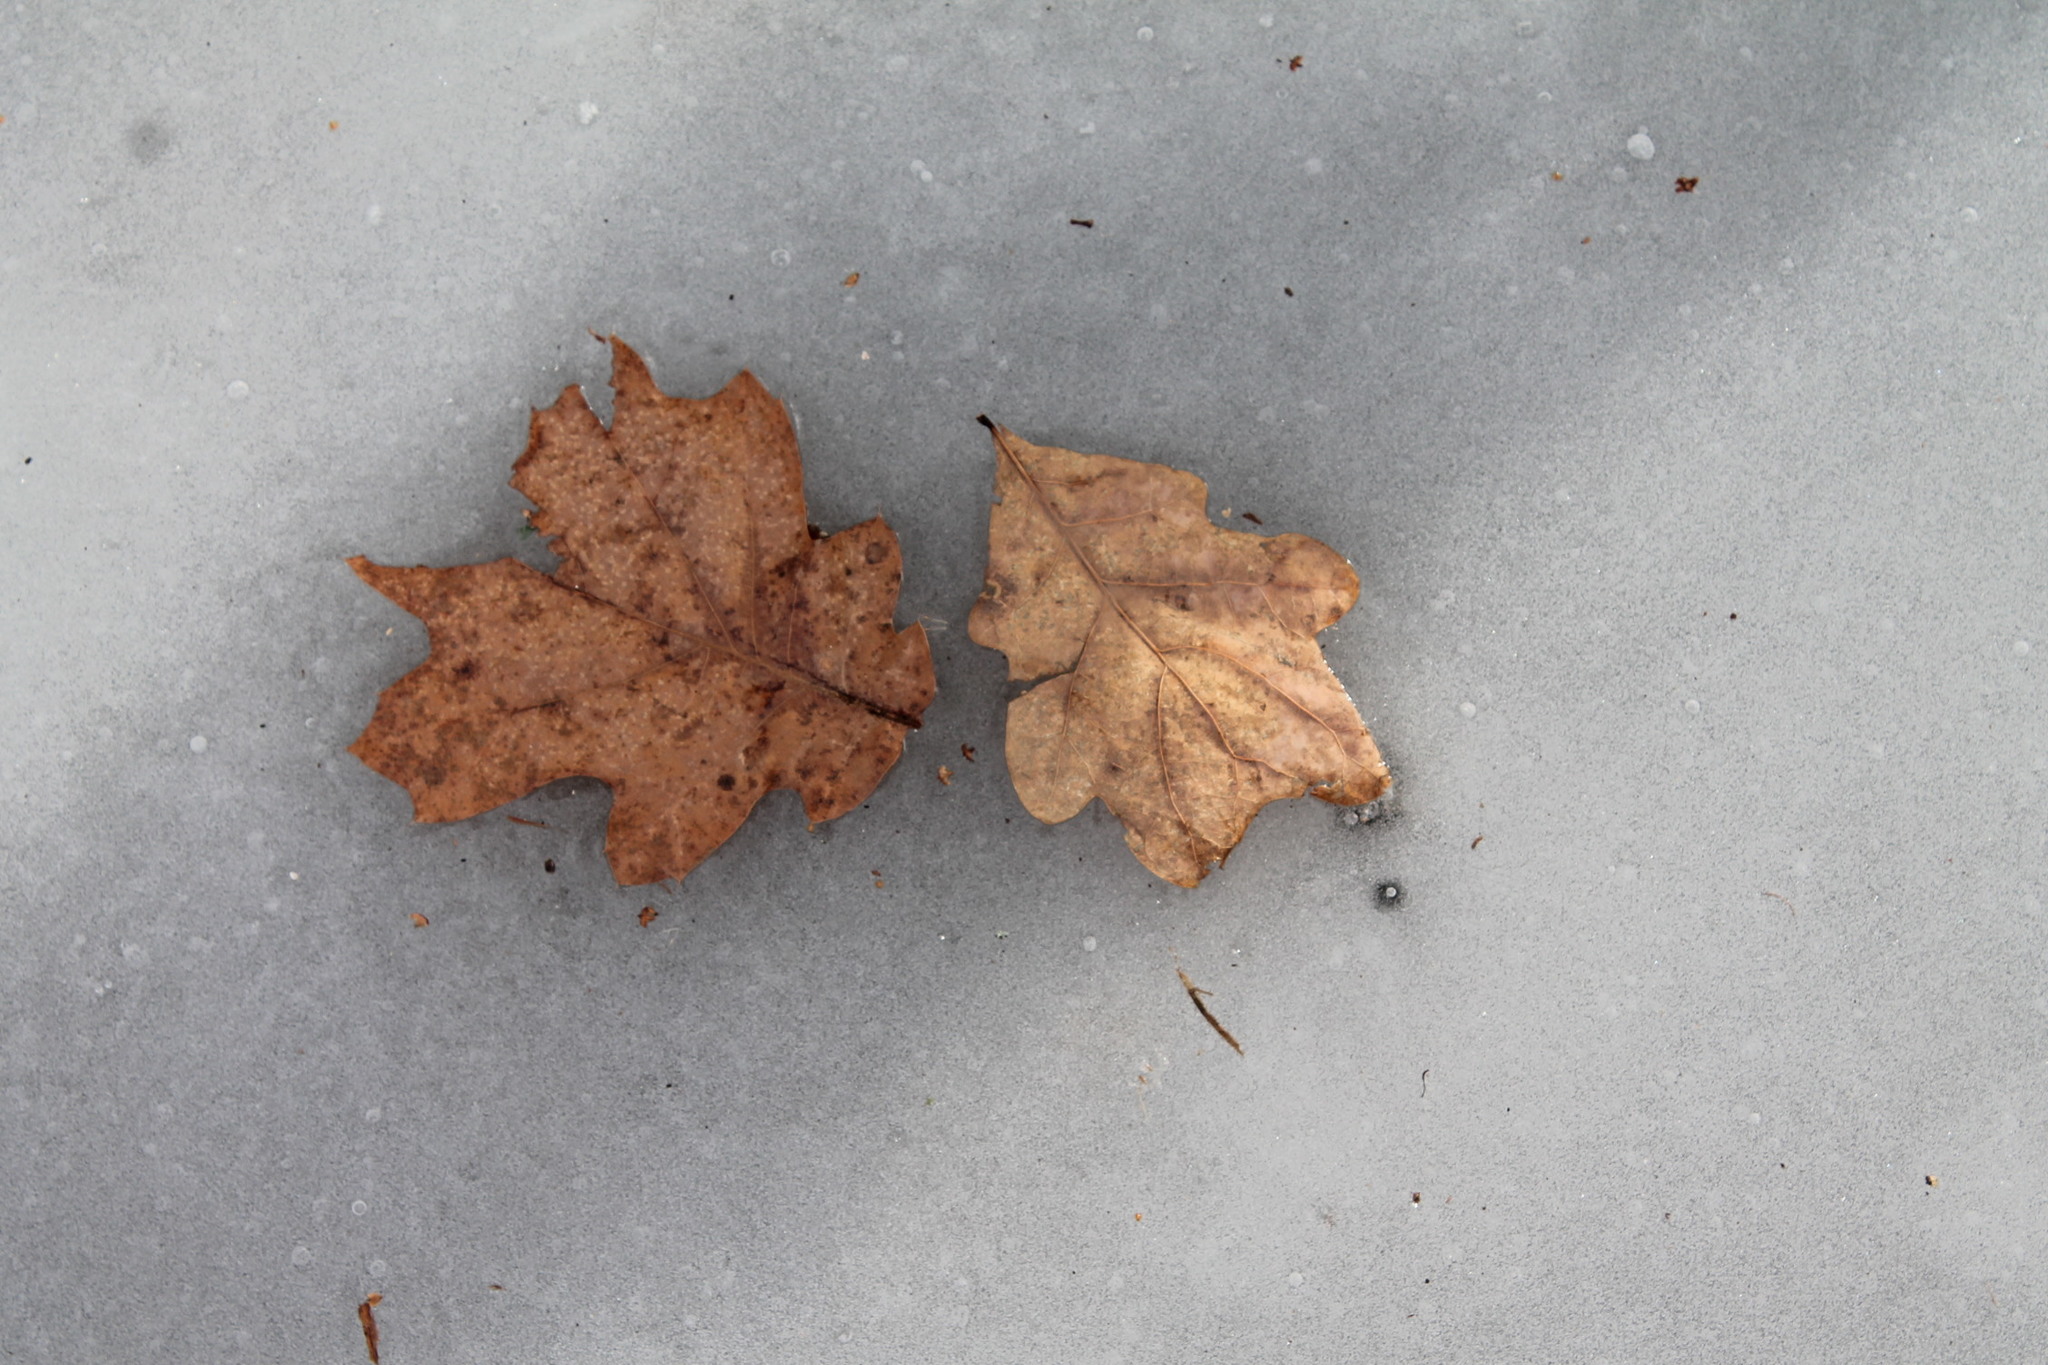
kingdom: Plantae
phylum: Tracheophyta
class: Magnoliopsida
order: Fagales
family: Fagaceae
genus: Quercus
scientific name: Quercus alba
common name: White oak
